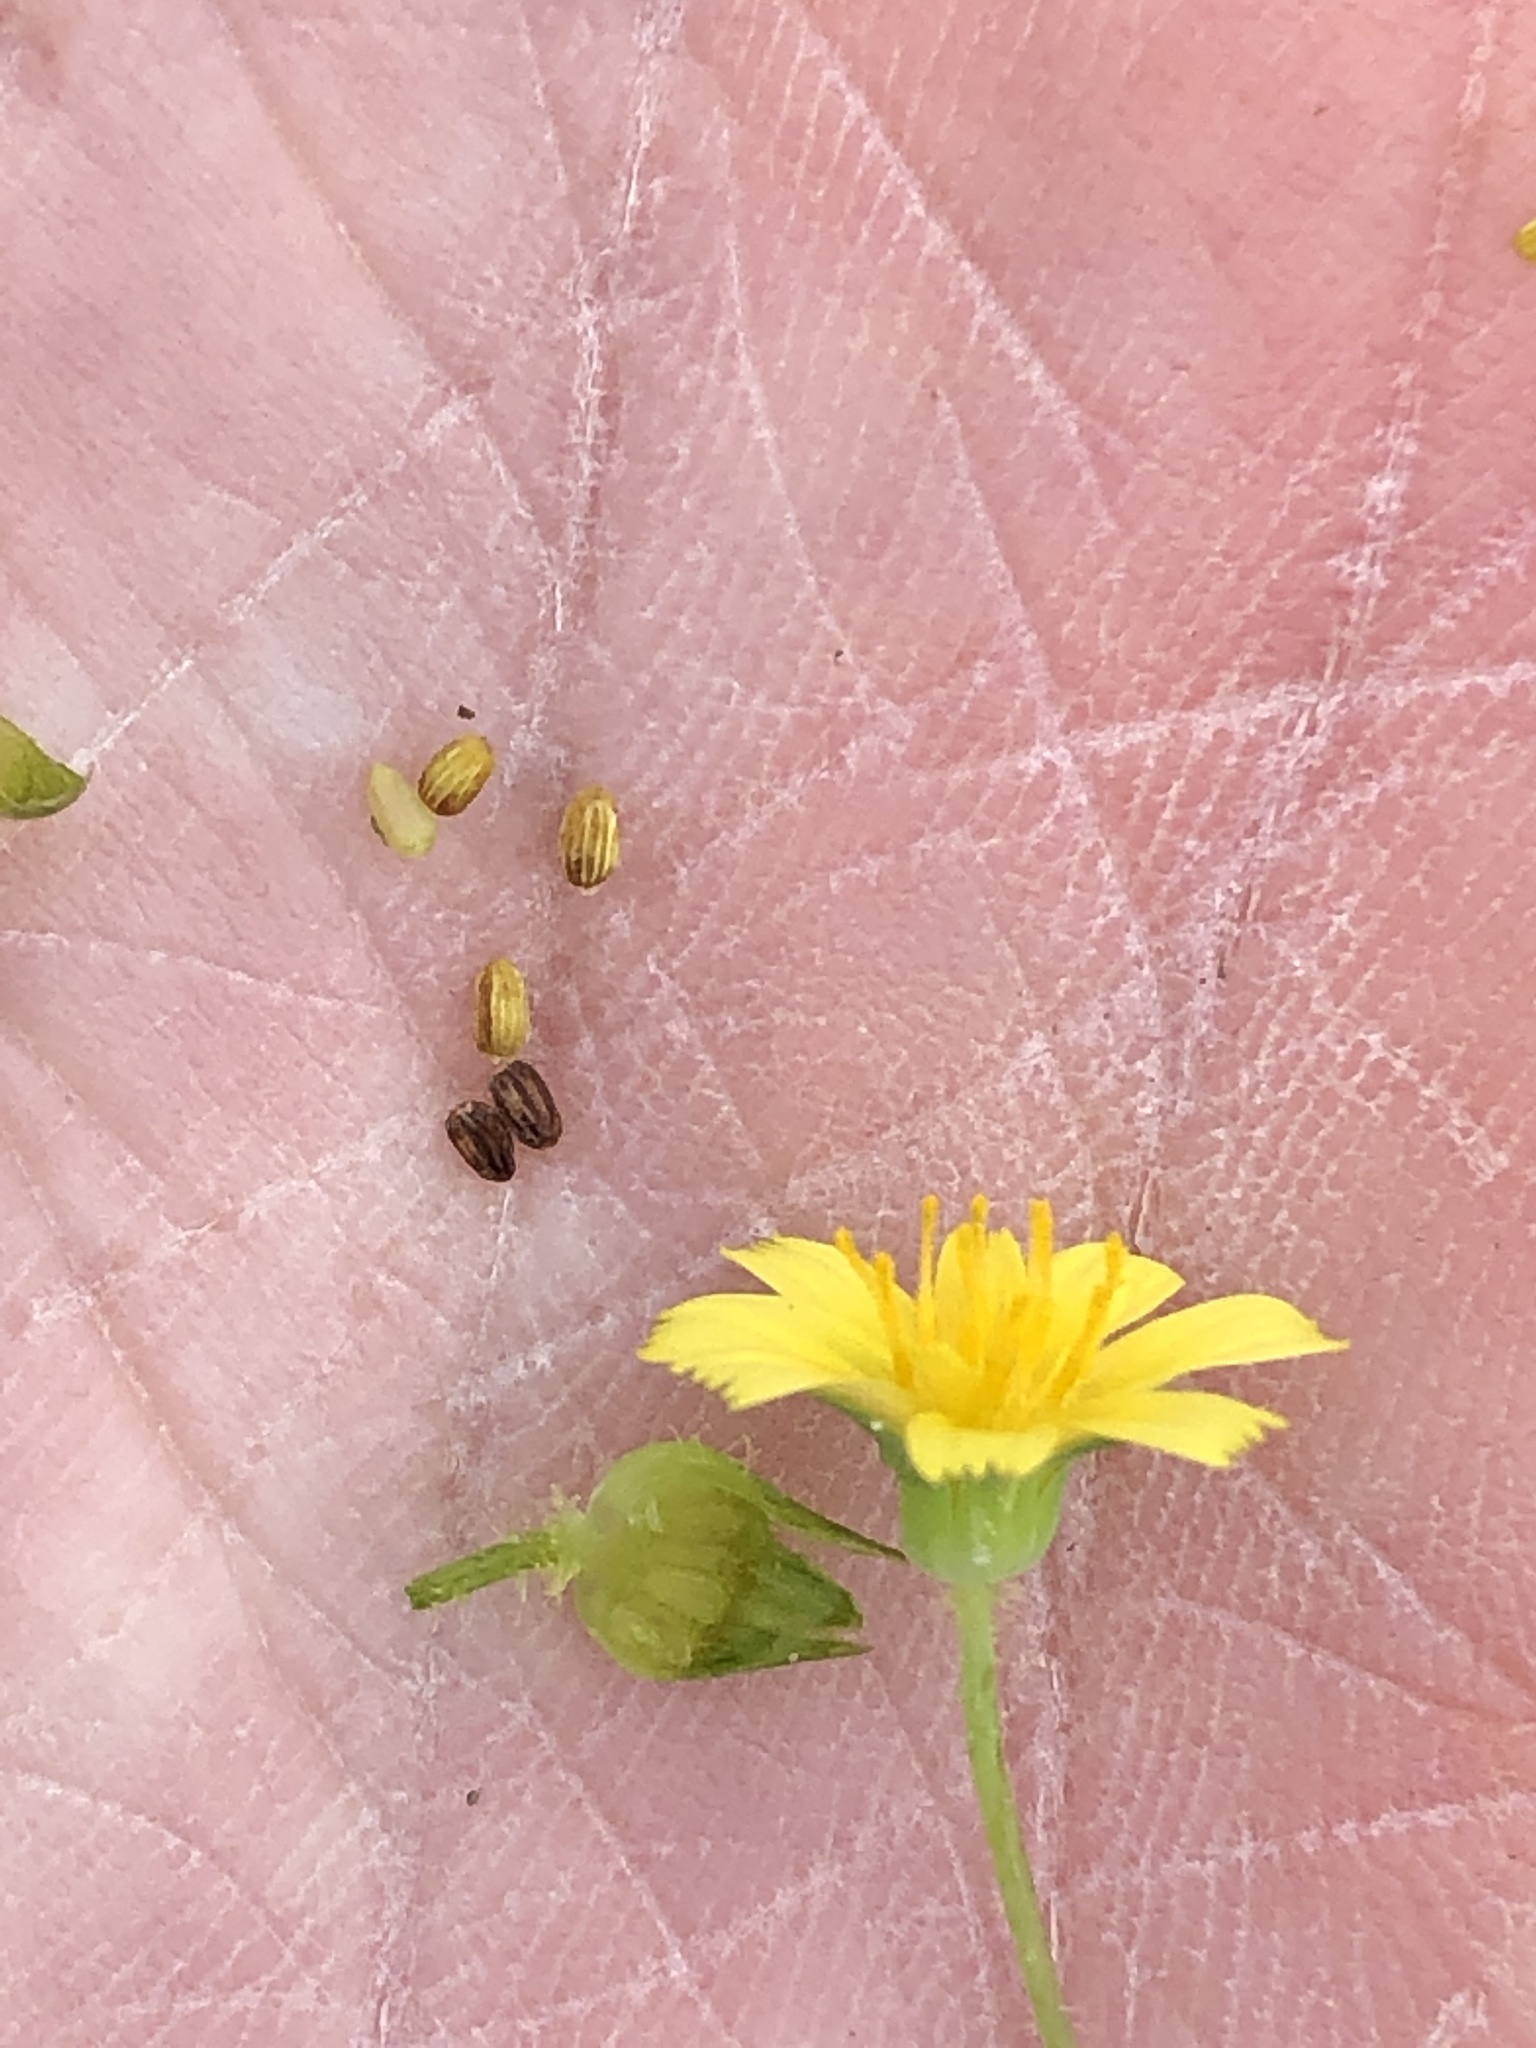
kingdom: Plantae
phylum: Tracheophyta
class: Magnoliopsida
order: Asterales
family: Asteraceae
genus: Krigia
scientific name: Krigia cespitosa
